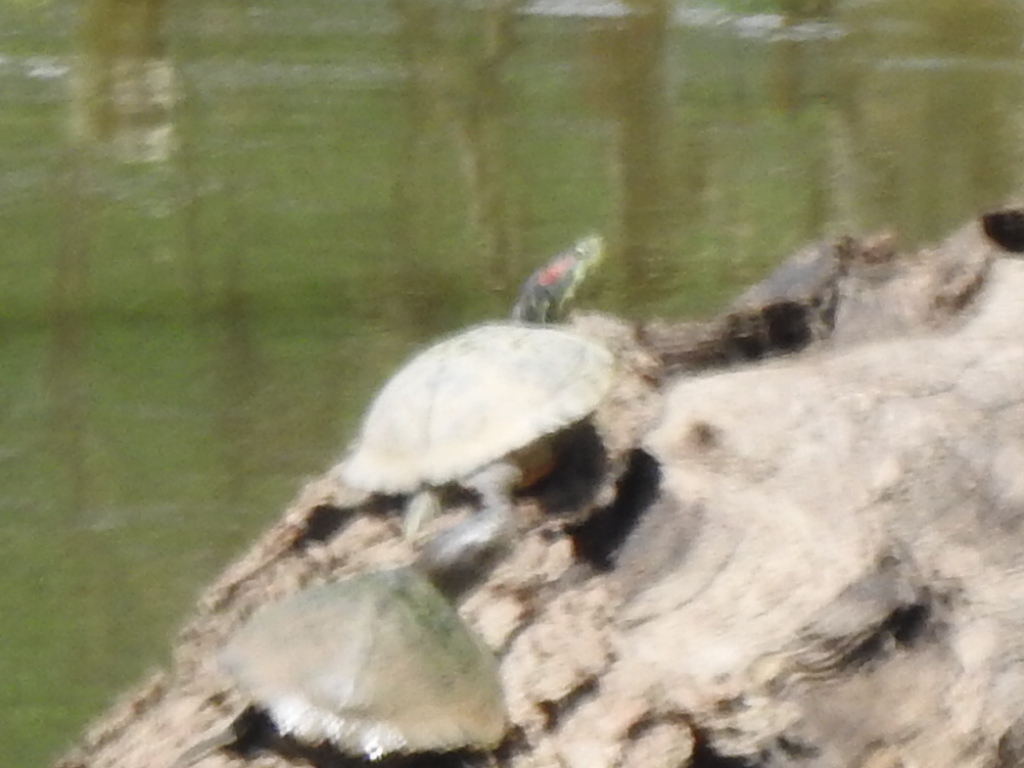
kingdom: Animalia
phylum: Chordata
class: Testudines
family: Emydidae
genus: Trachemys
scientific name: Trachemys scripta
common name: Slider
